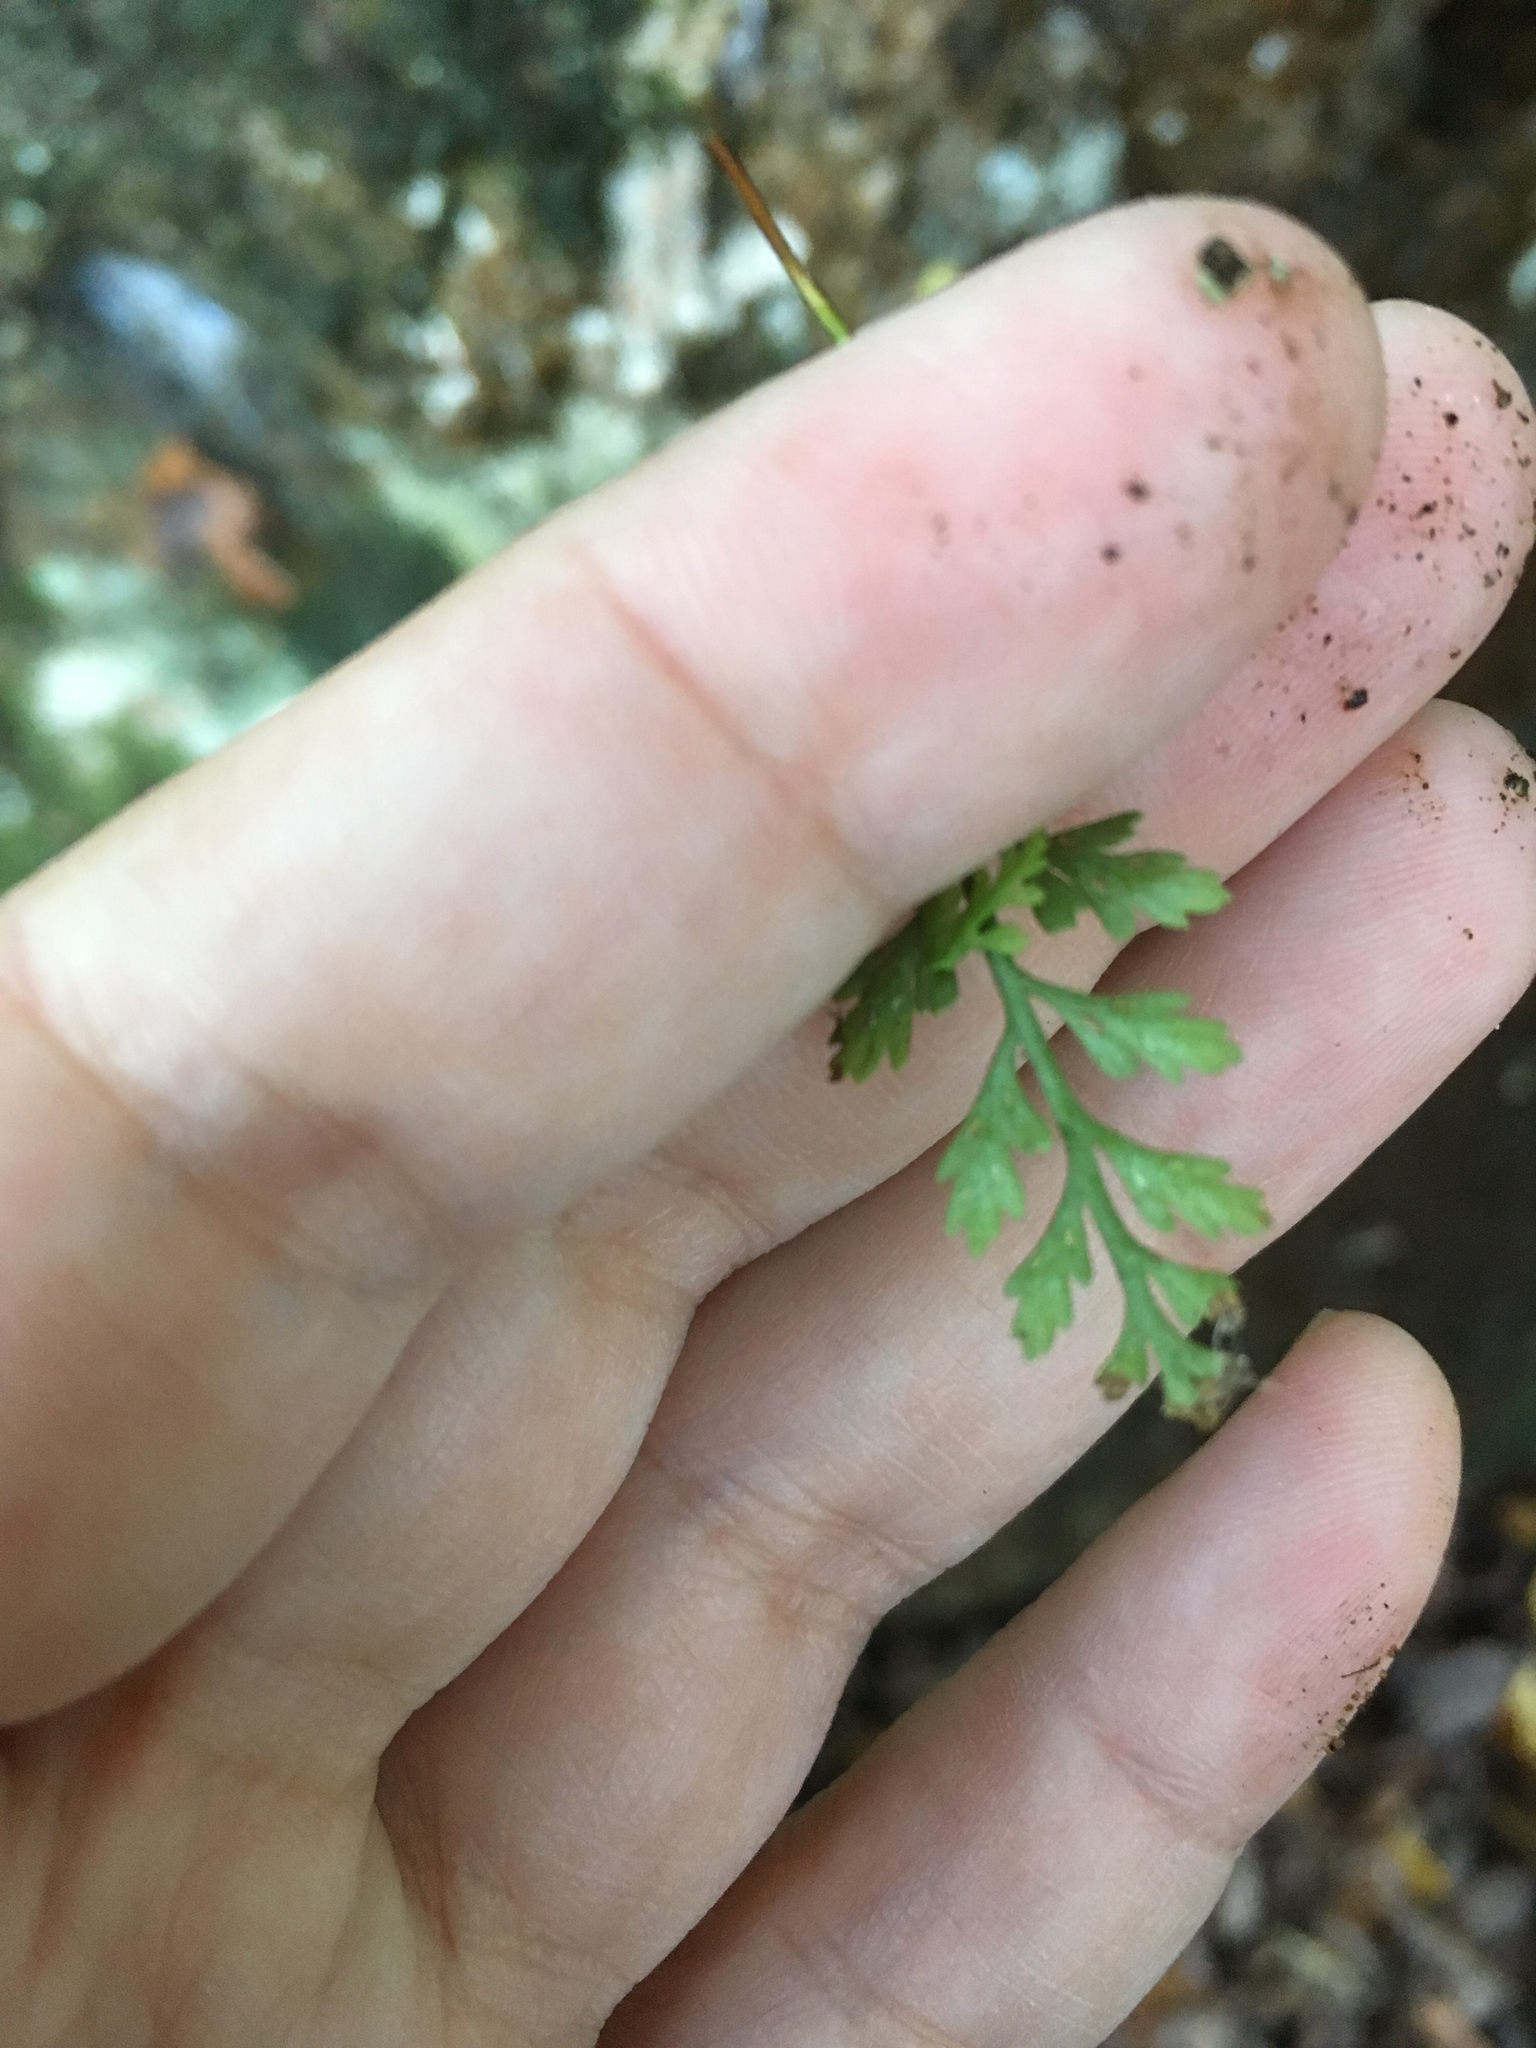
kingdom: Plantae
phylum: Tracheophyta
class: Polypodiopsida
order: Polypodiales
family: Aspleniaceae
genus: Asplenium
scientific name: Asplenium montanum
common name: Mountain spleenwort
